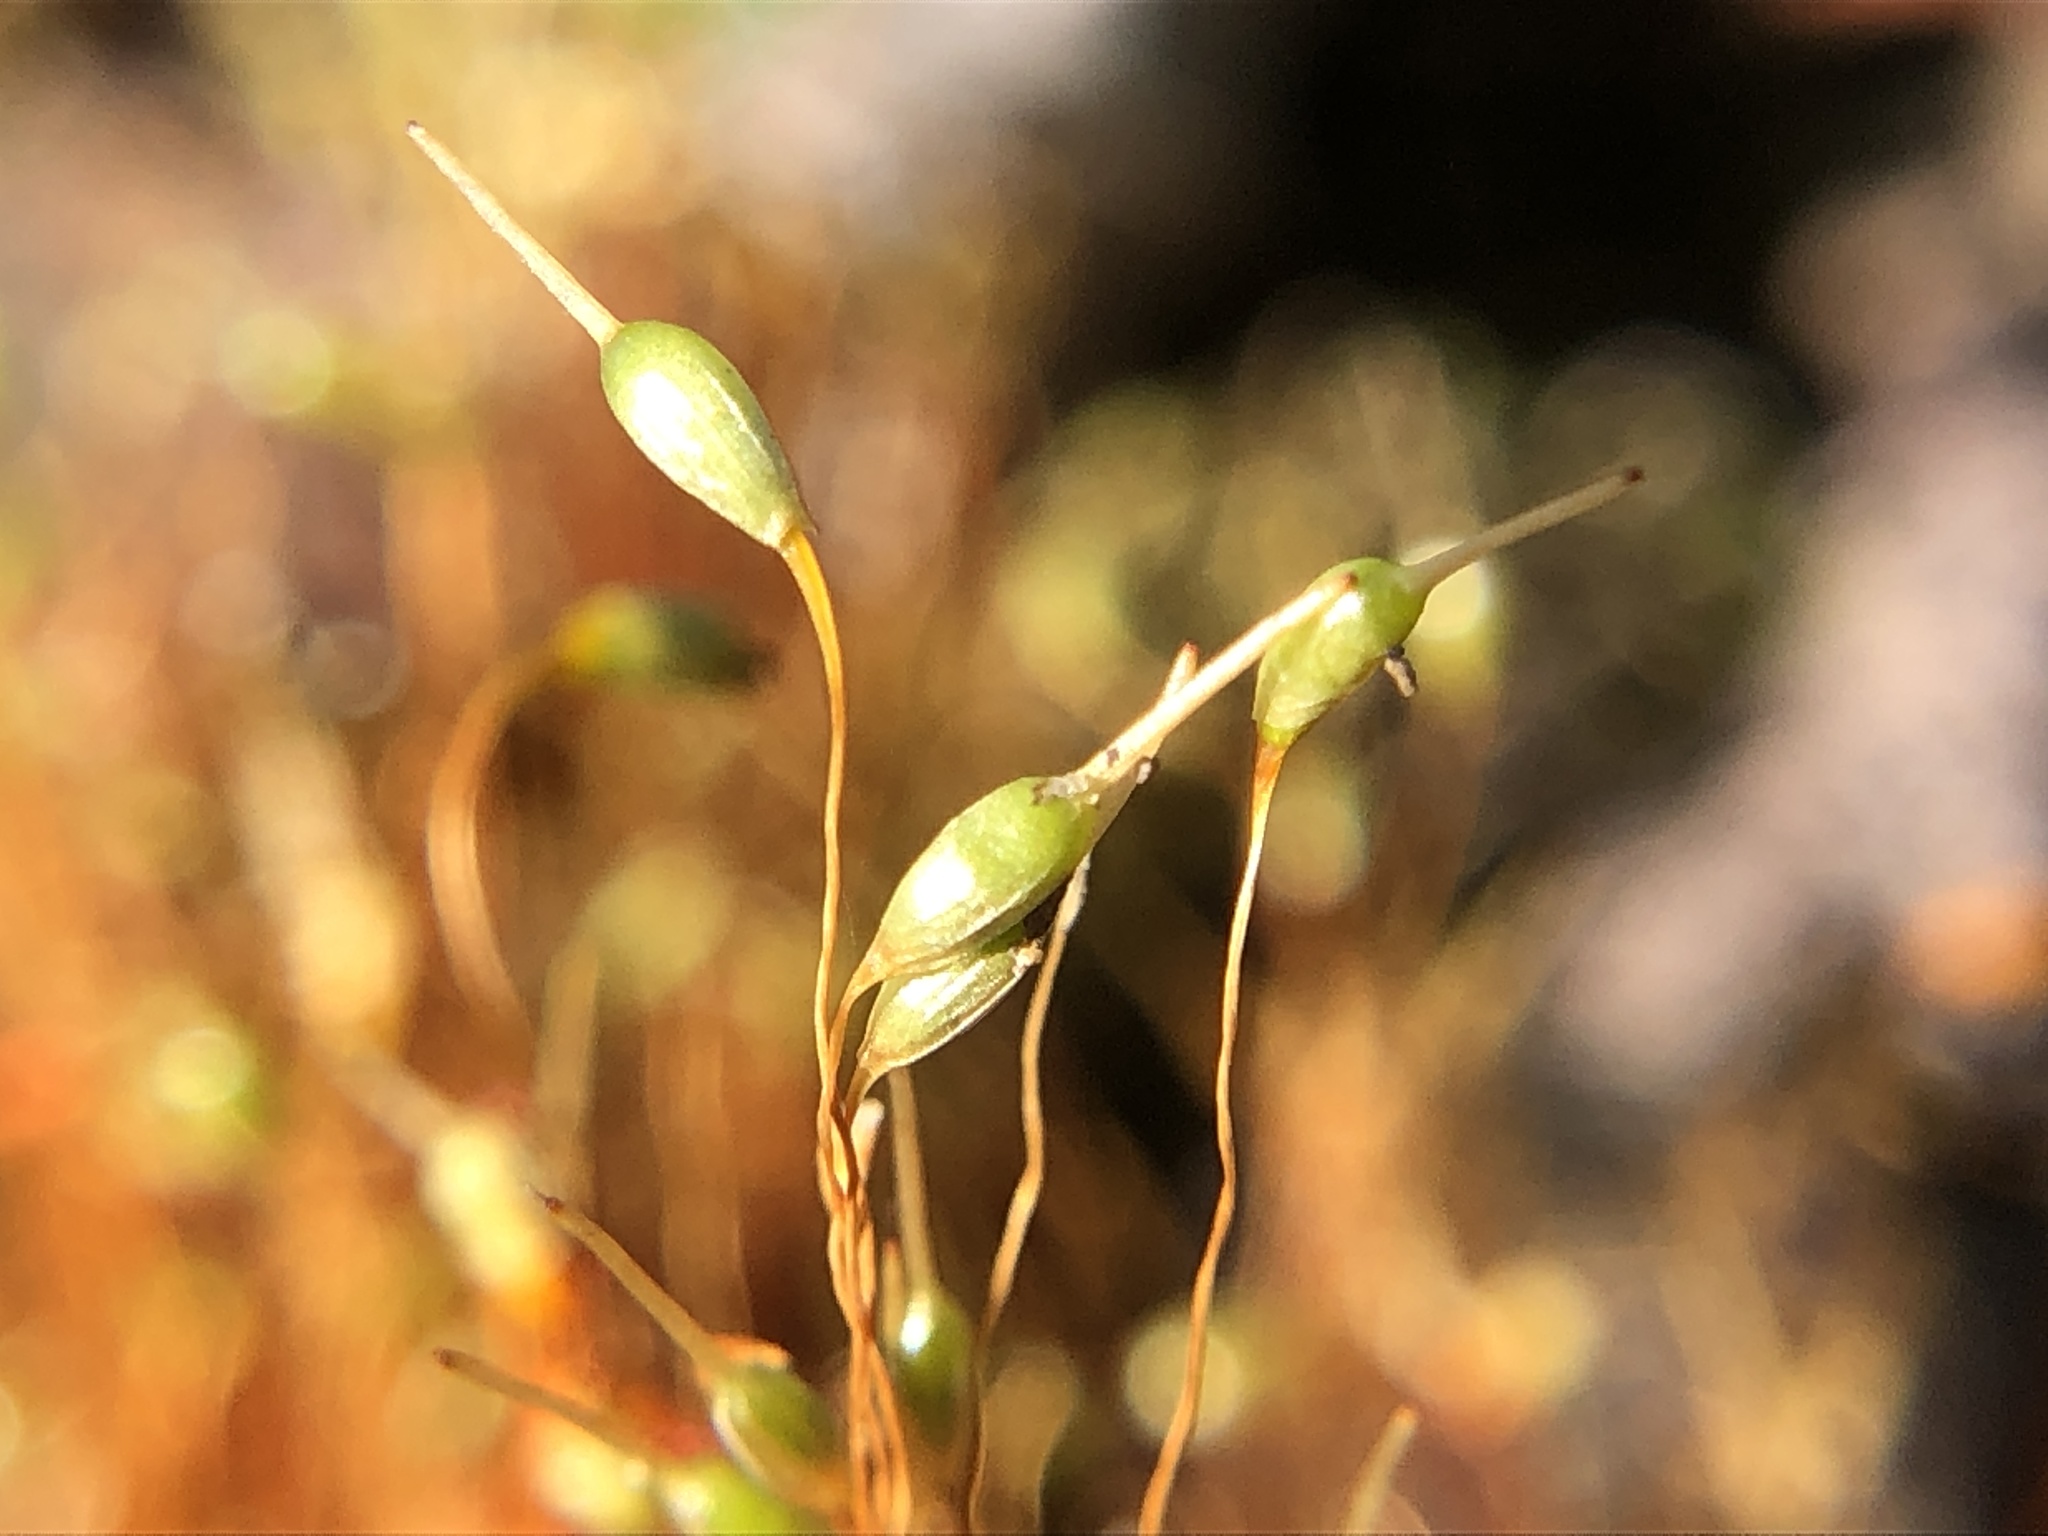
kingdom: Plantae
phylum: Bryophyta
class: Bryopsida
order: Funariales
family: Funariaceae
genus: Funaria
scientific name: Funaria hygrometrica
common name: Common cord moss
